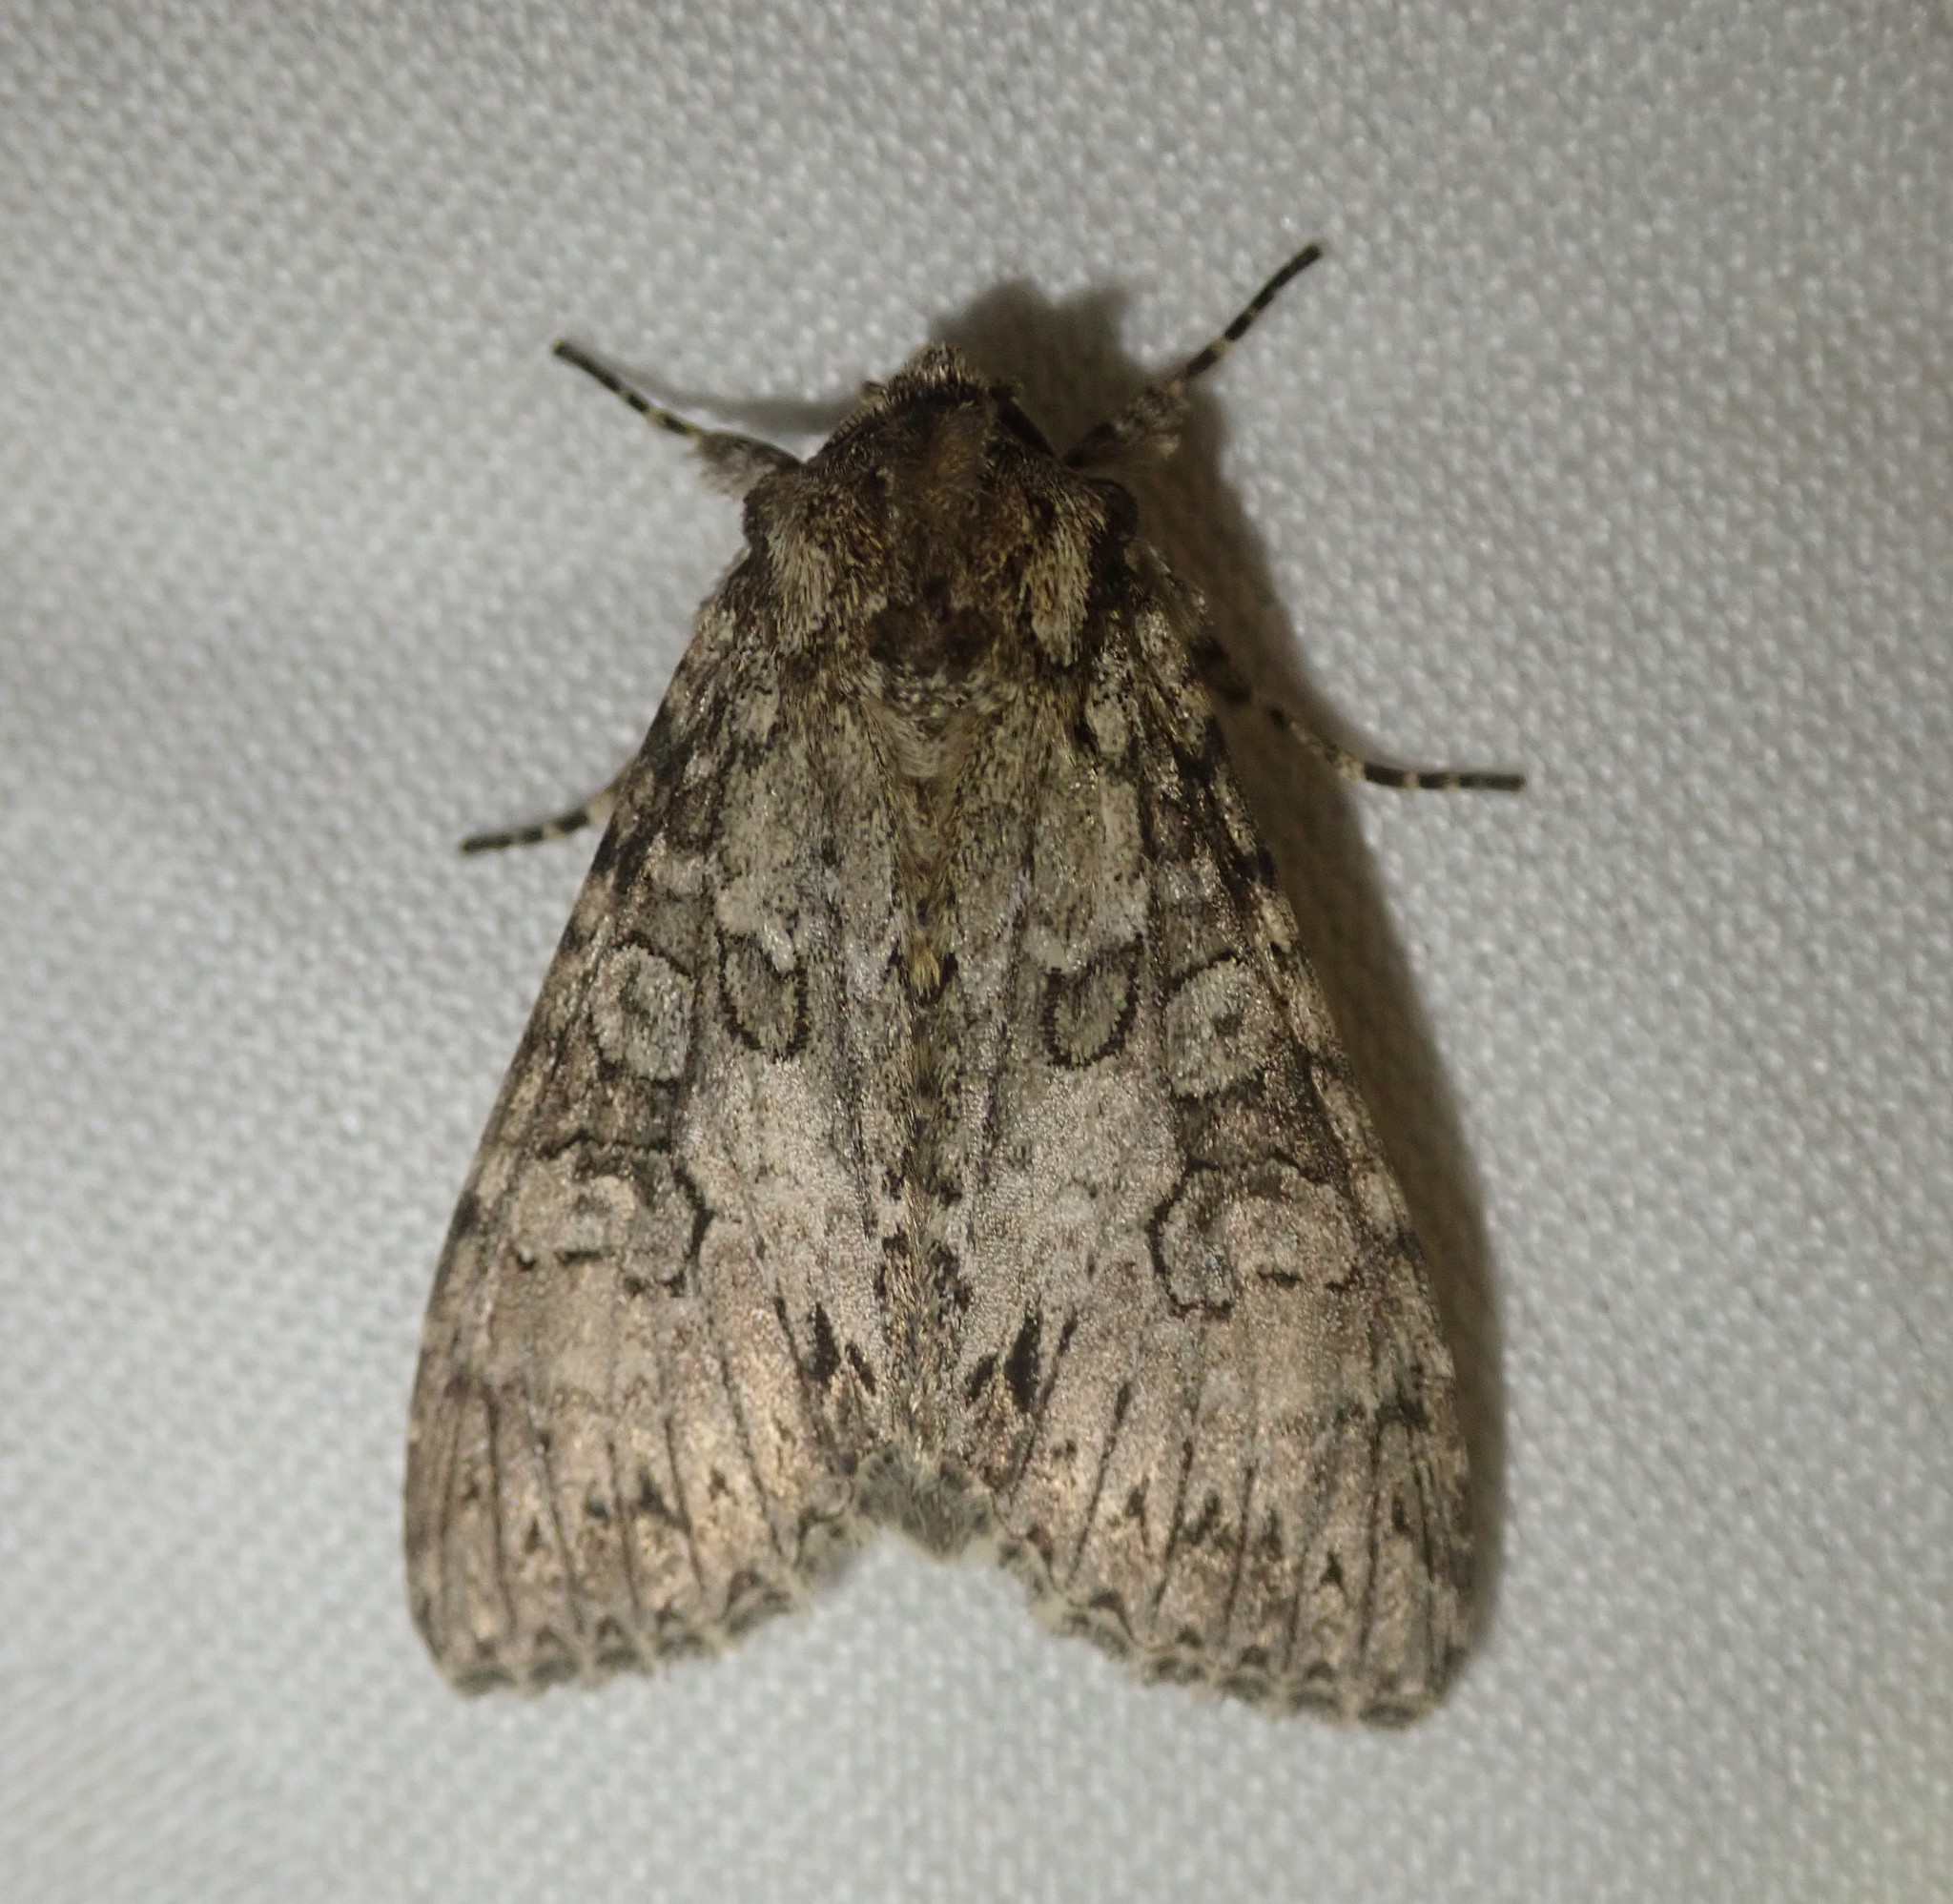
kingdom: Animalia
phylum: Arthropoda
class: Insecta
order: Lepidoptera
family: Noctuidae
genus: Polia
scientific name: Polia nebulosa
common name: Grey arches
